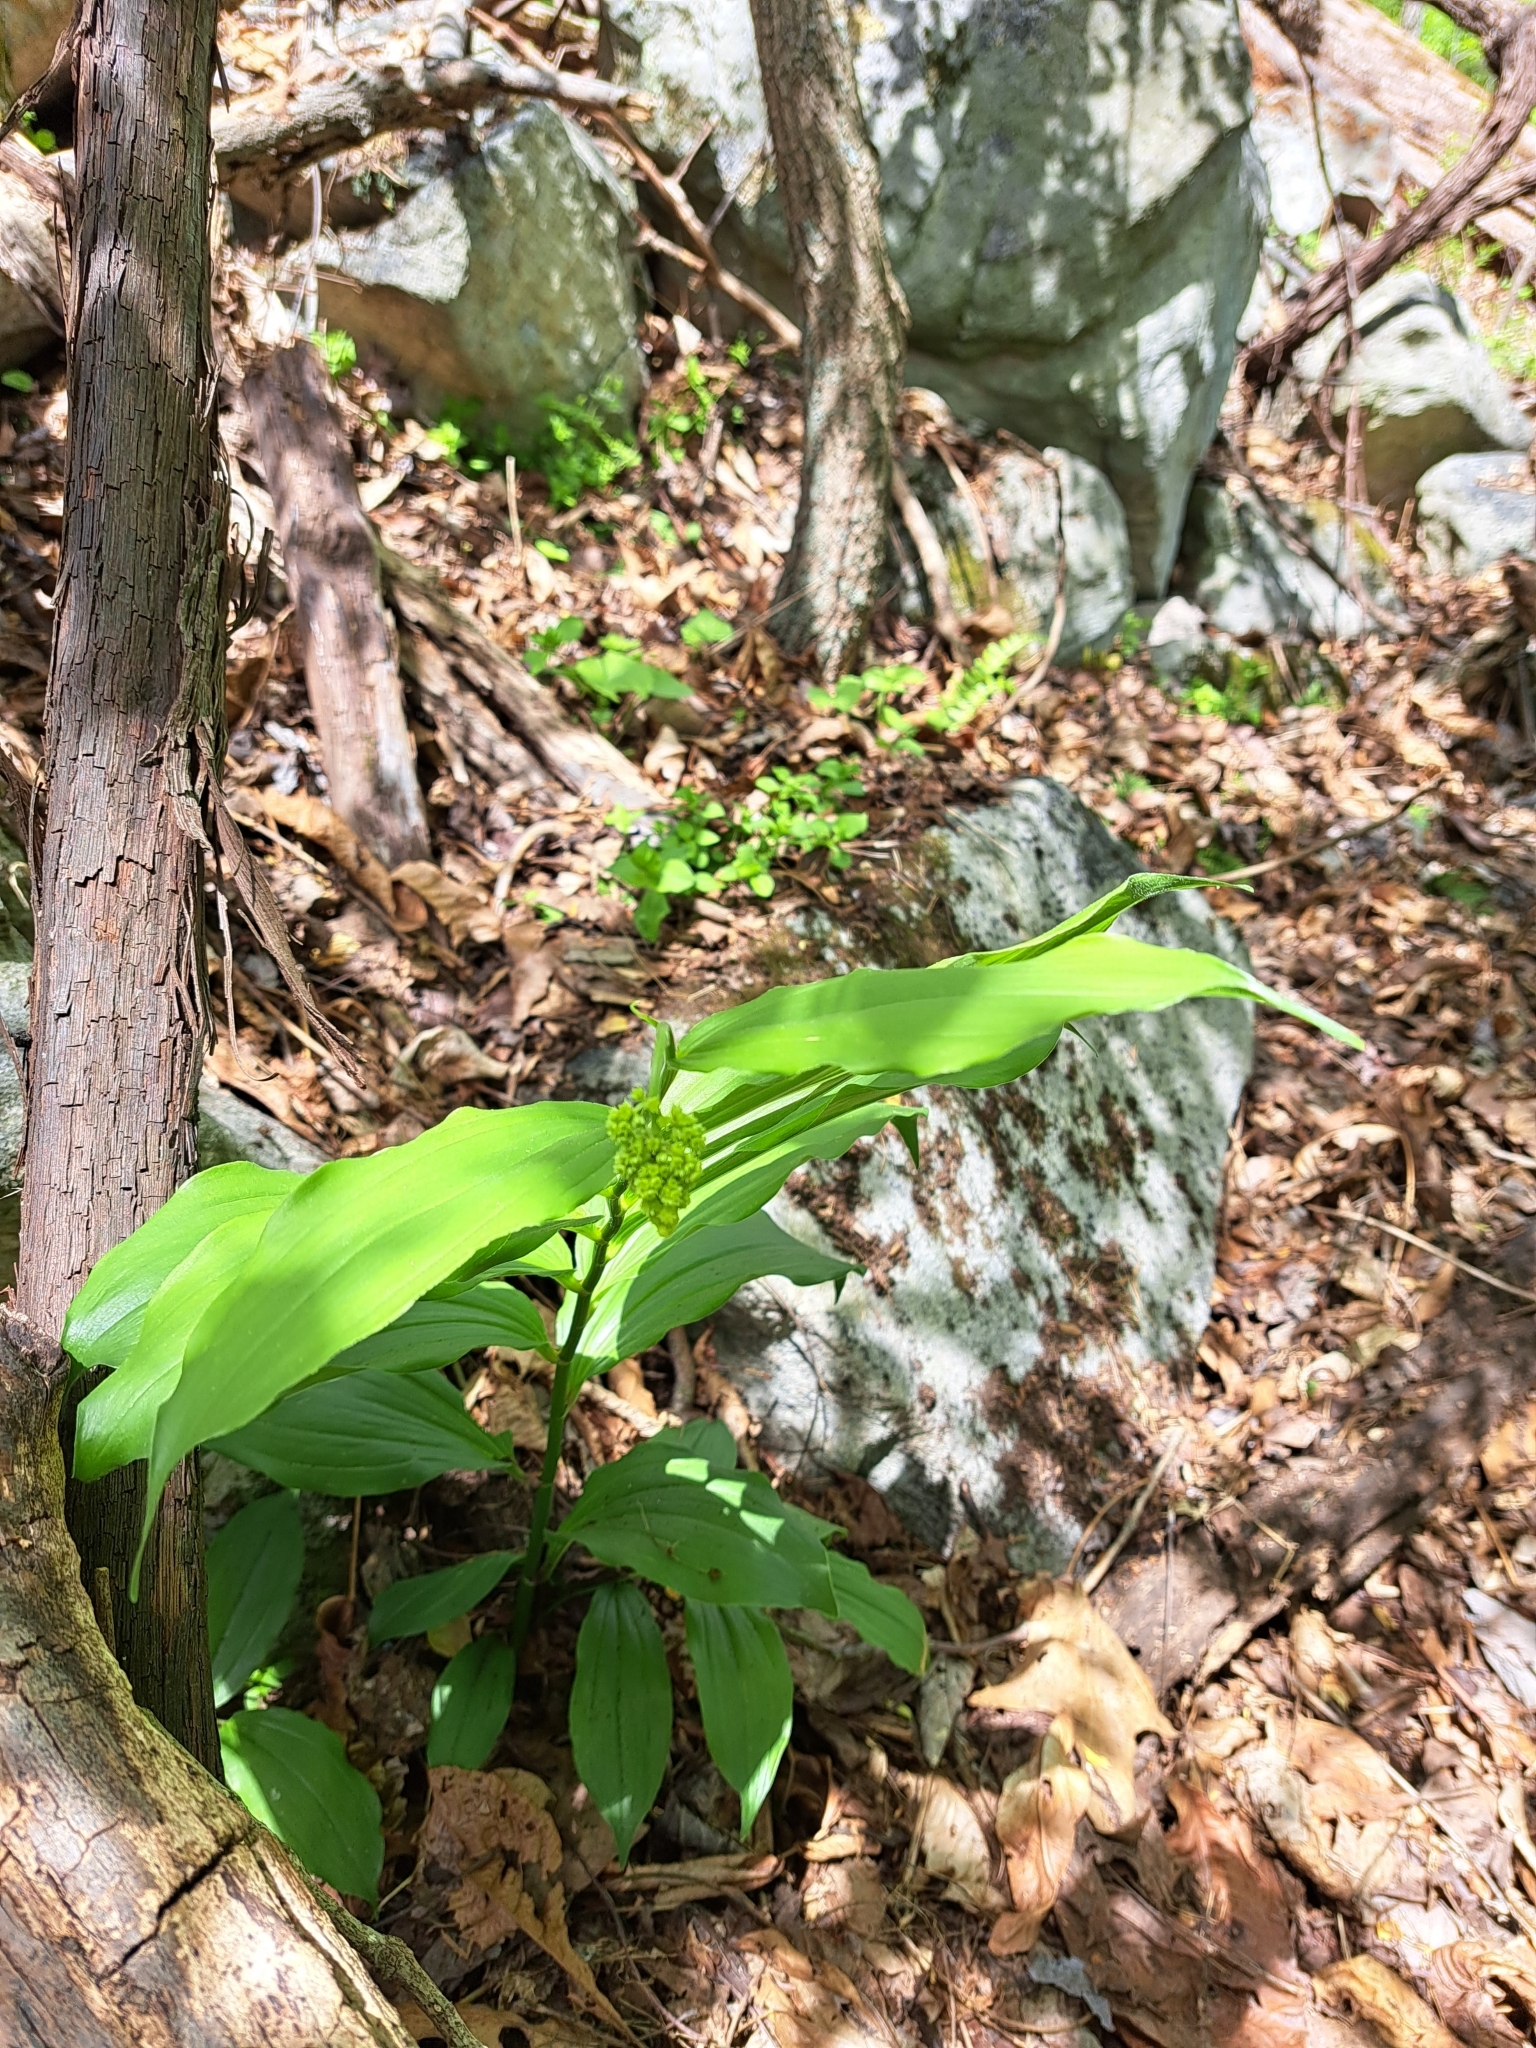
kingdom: Plantae
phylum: Tracheophyta
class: Liliopsida
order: Asparagales
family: Asparagaceae
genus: Maianthemum
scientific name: Maianthemum racemosum
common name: False spikenard
